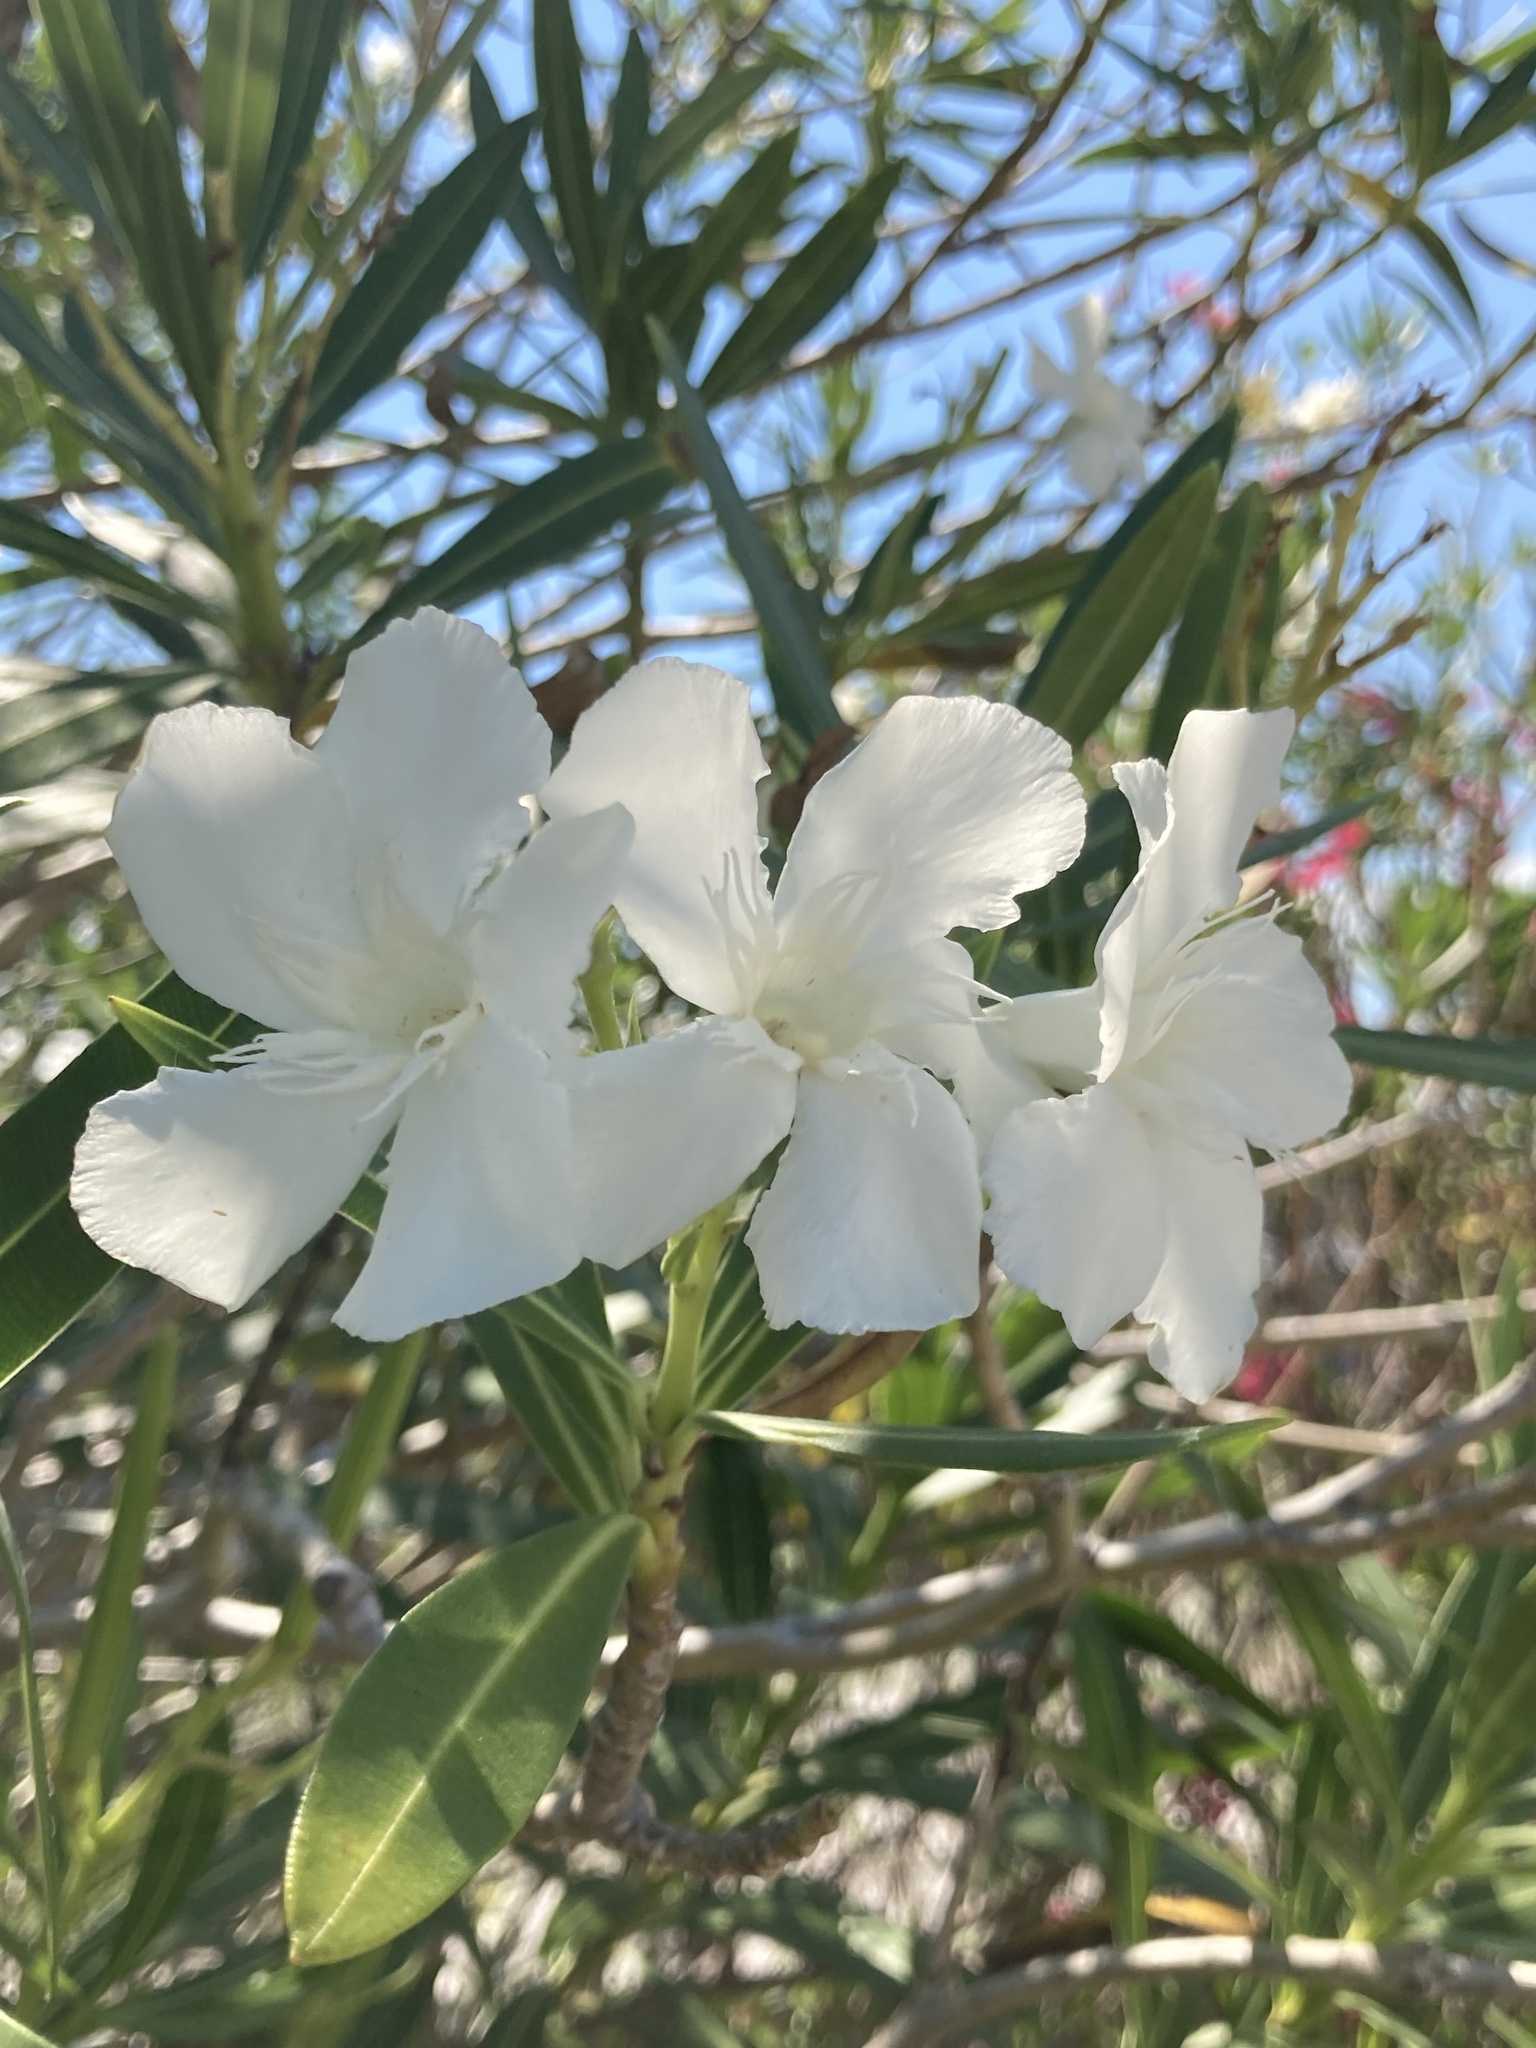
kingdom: Plantae
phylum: Tracheophyta
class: Magnoliopsida
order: Gentianales
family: Apocynaceae
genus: Nerium
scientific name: Nerium oleander
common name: Oleander
